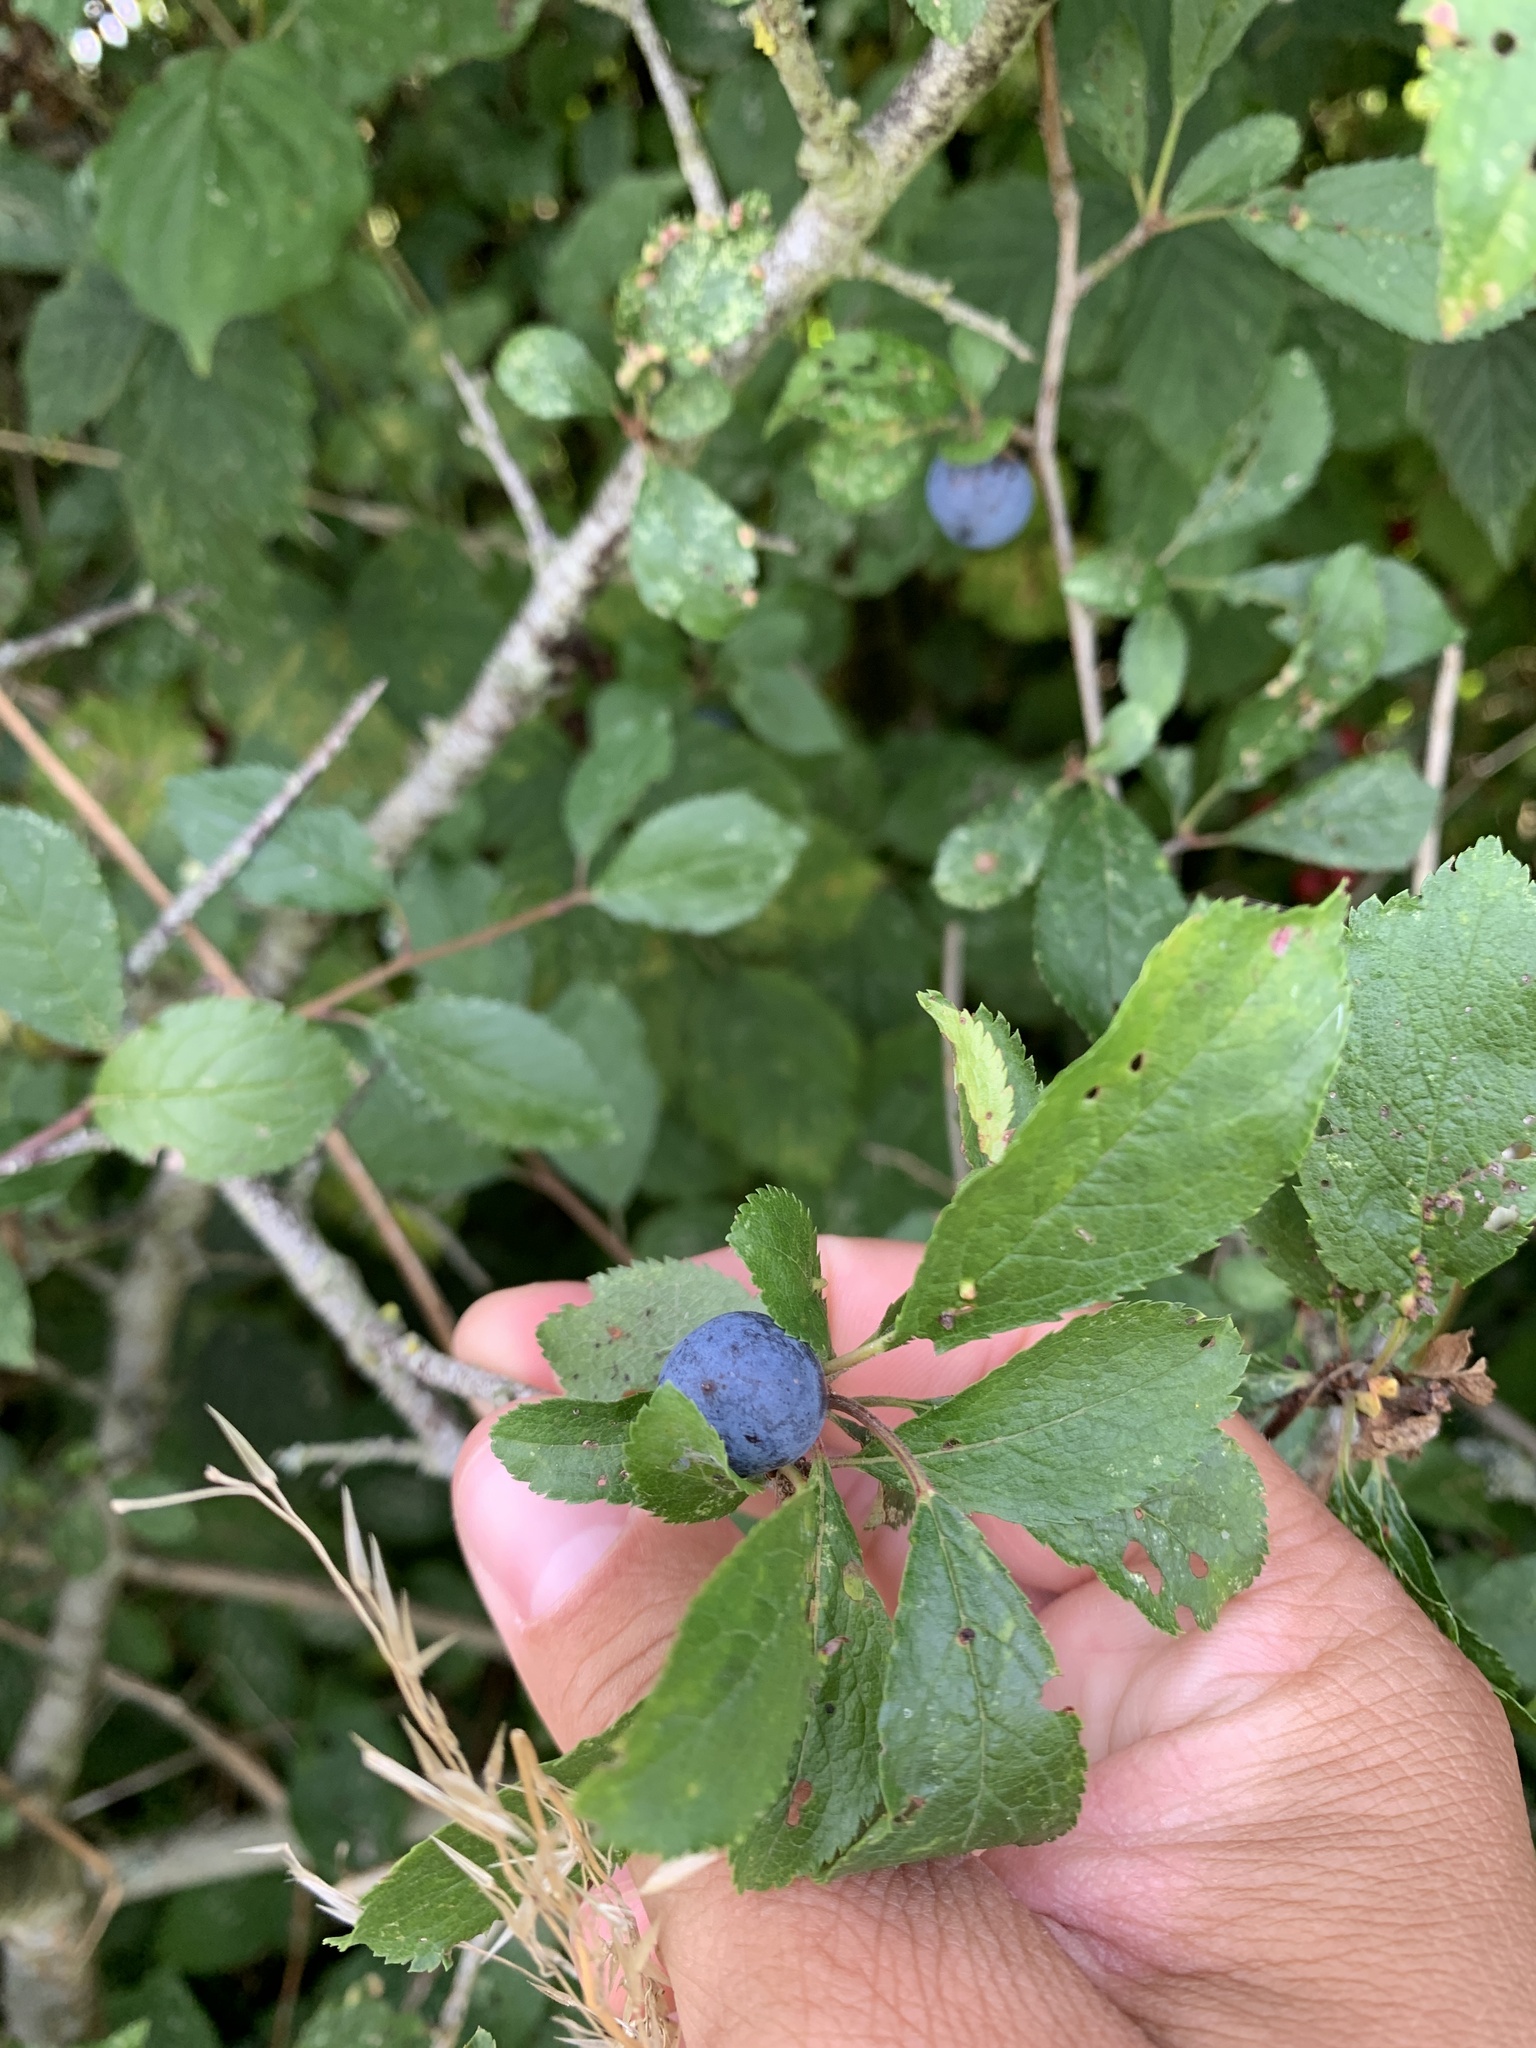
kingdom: Plantae
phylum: Tracheophyta
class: Magnoliopsida
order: Rosales
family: Rosaceae
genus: Prunus
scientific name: Prunus spinosa
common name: Blackthorn
